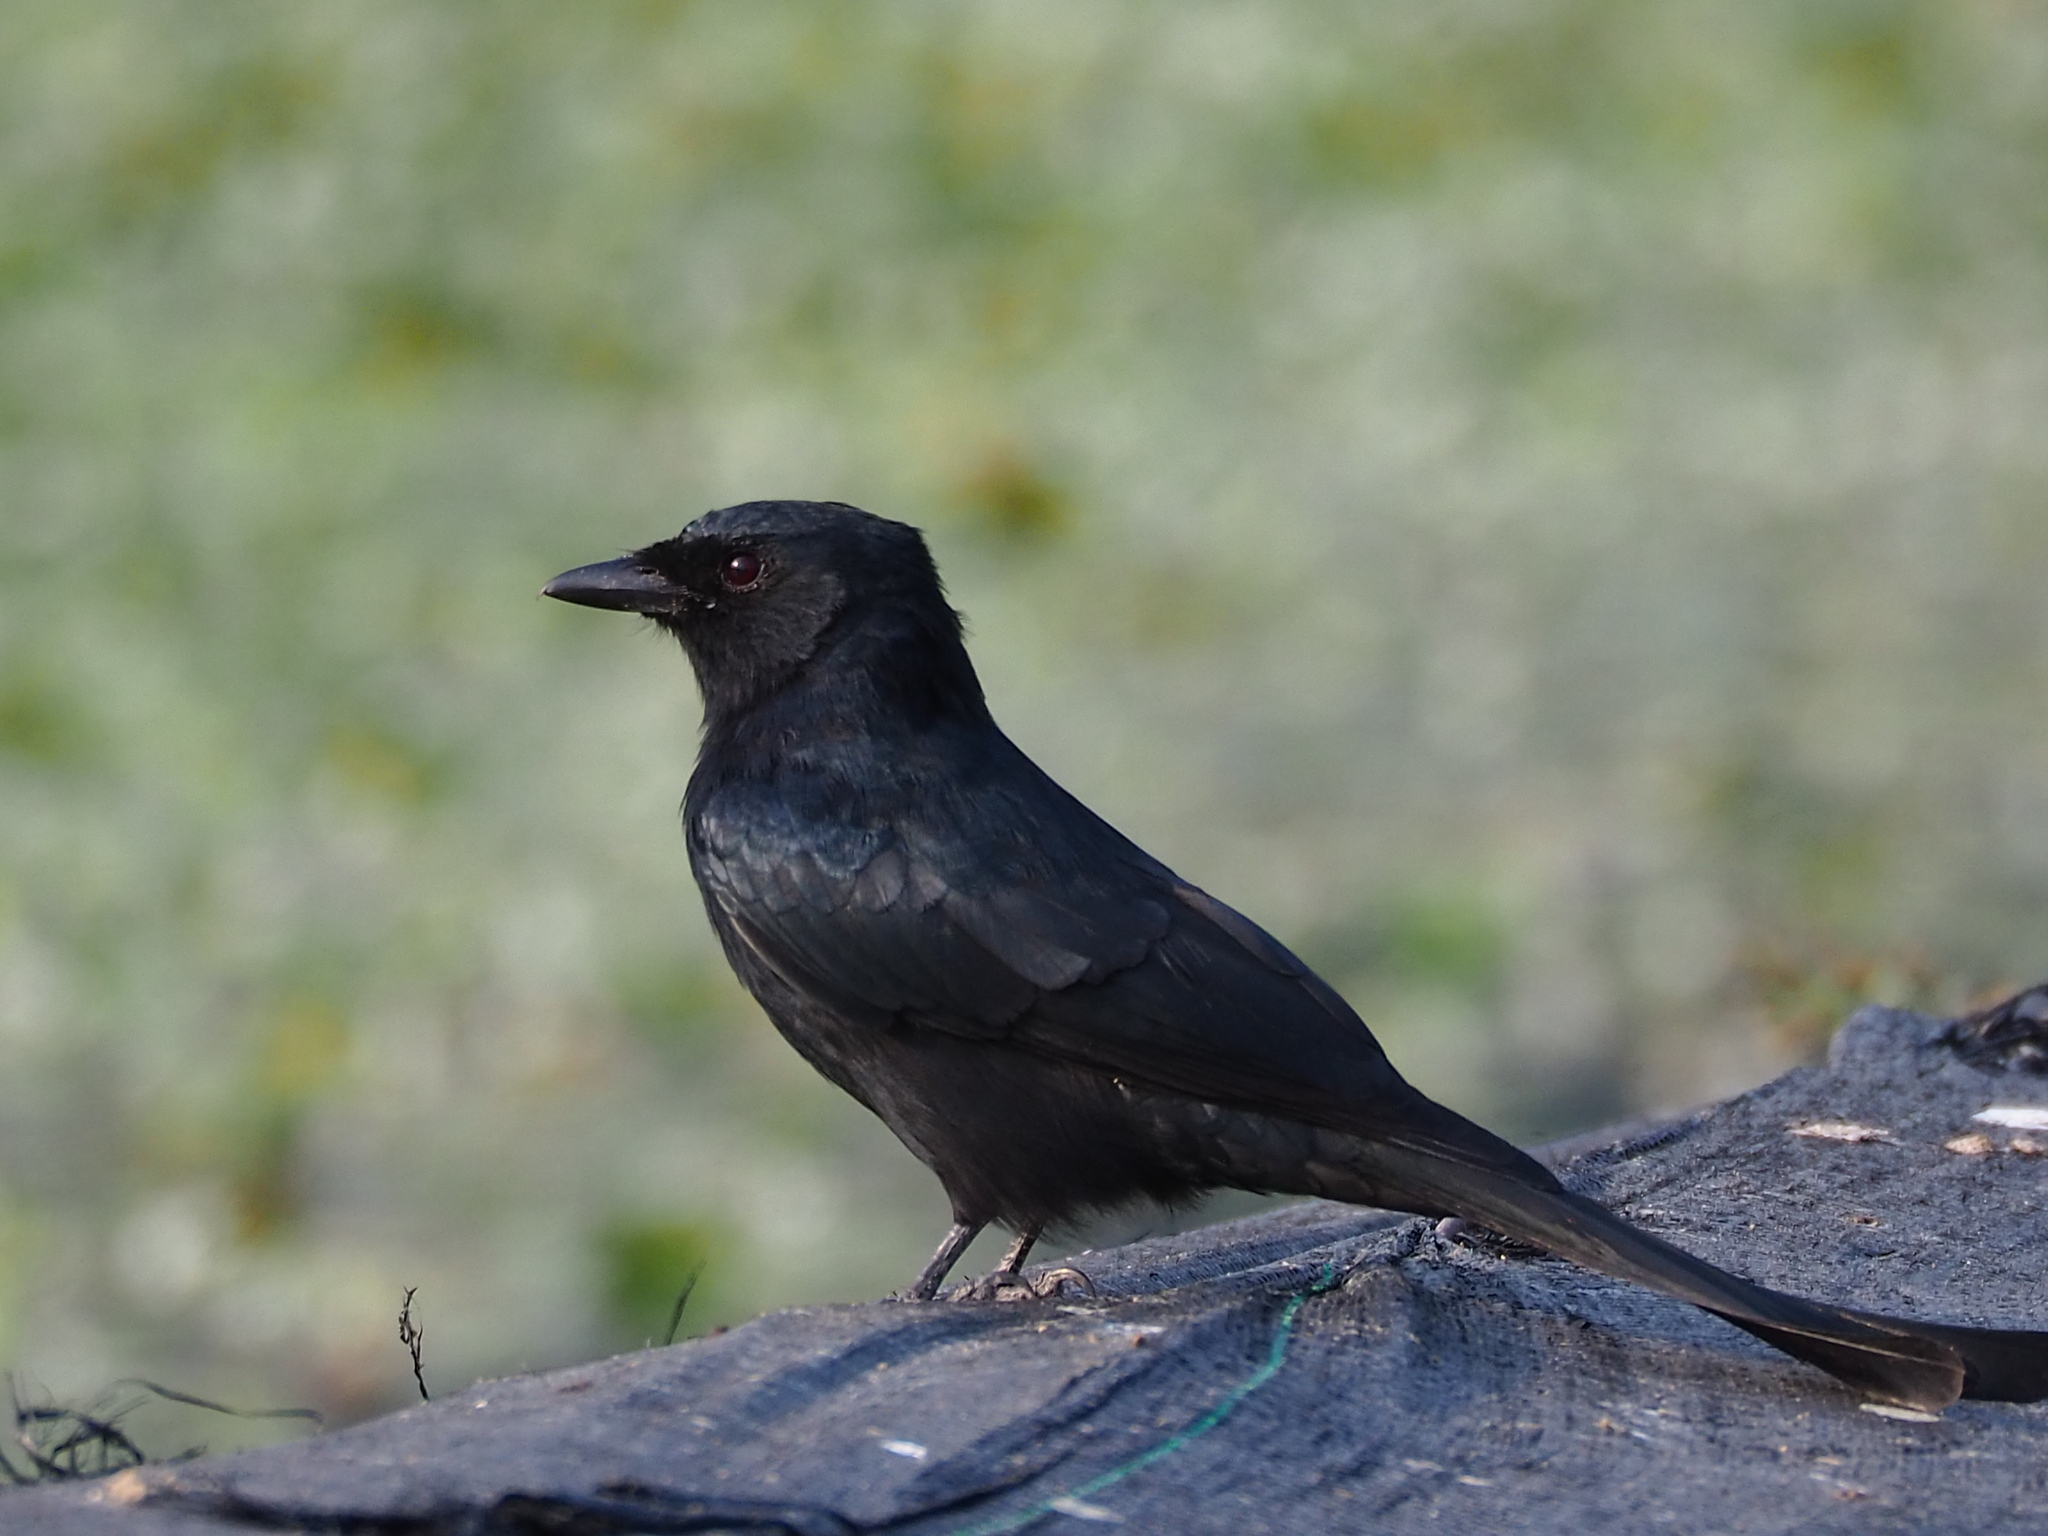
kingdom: Animalia
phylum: Chordata
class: Aves
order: Passeriformes
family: Dicruridae
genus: Dicrurus
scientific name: Dicrurus macrocercus
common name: Black drongo
